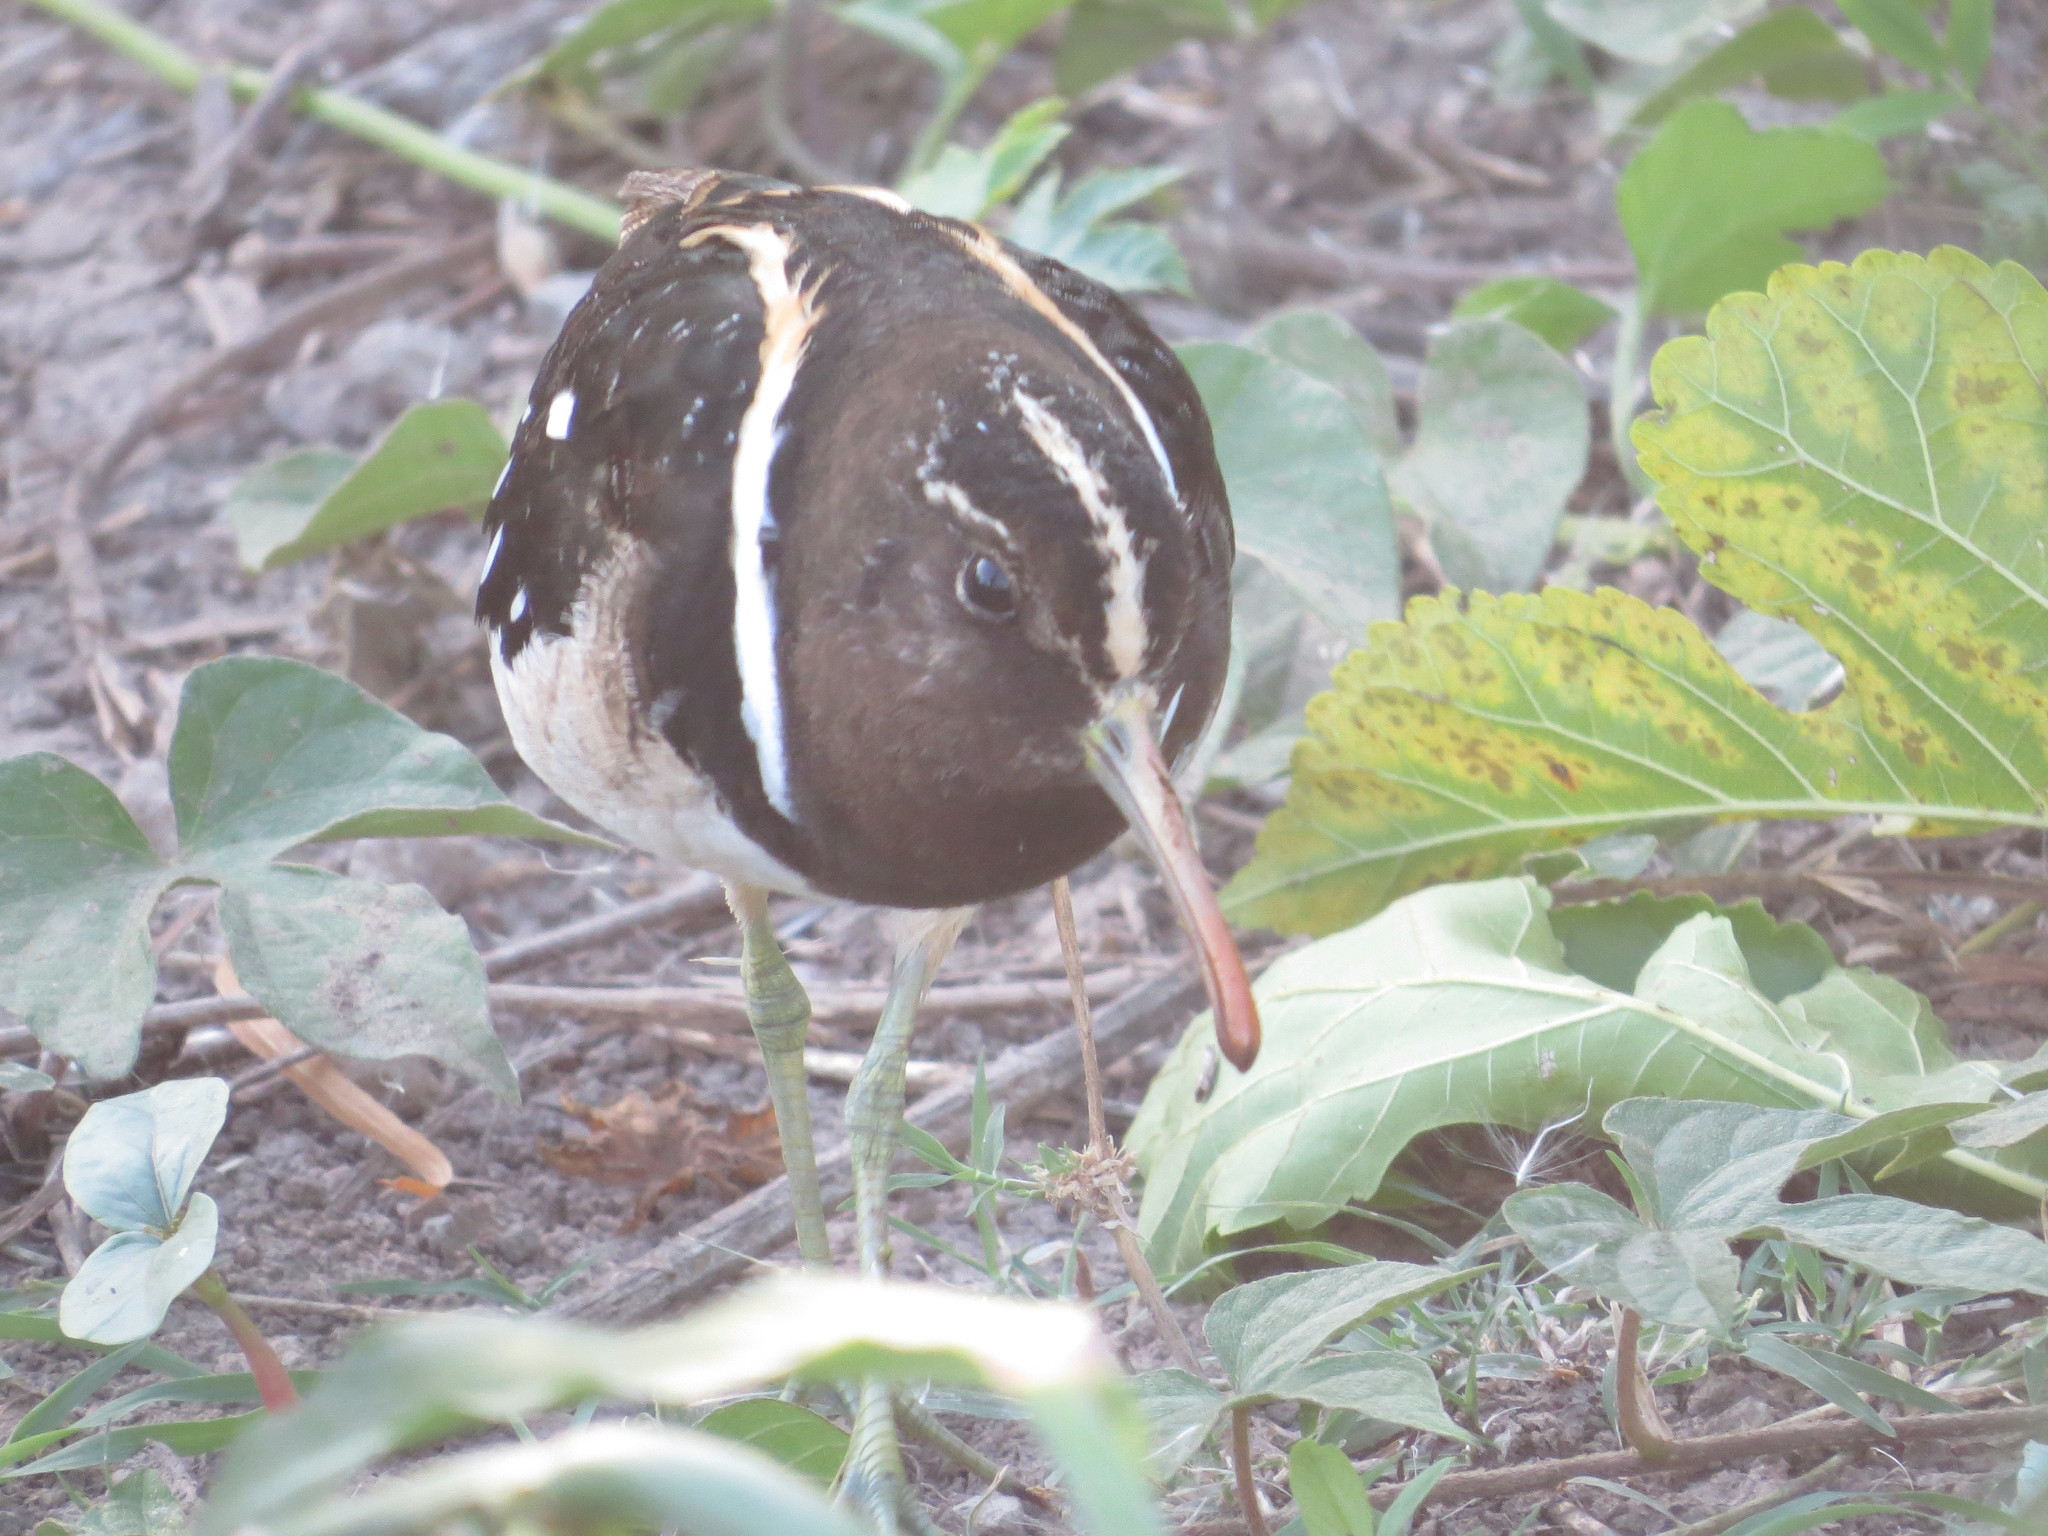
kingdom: Animalia
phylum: Chordata
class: Aves
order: Charadriiformes
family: Rostratulidae
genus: Nycticryphes
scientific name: Nycticryphes semicollaris
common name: South american painted-snipe
